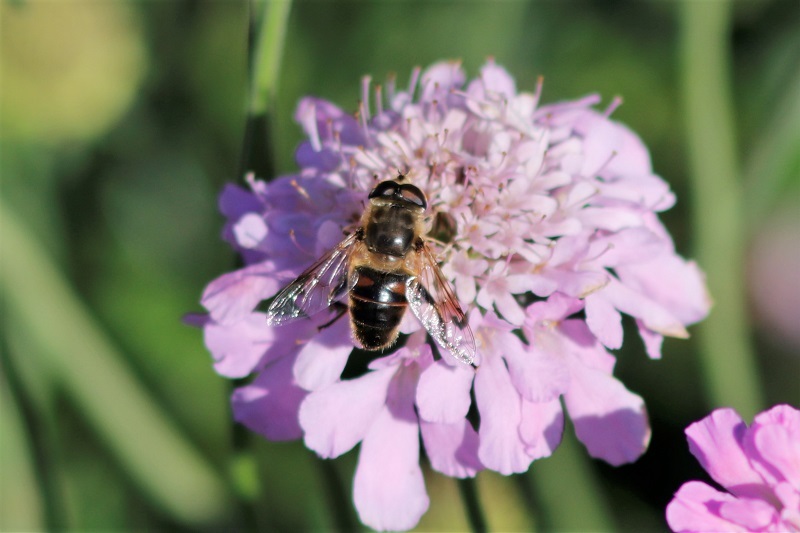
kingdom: Animalia
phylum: Arthropoda
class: Insecta
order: Diptera
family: Syrphidae
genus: Eristalis
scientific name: Eristalis tenax
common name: Drone fly
